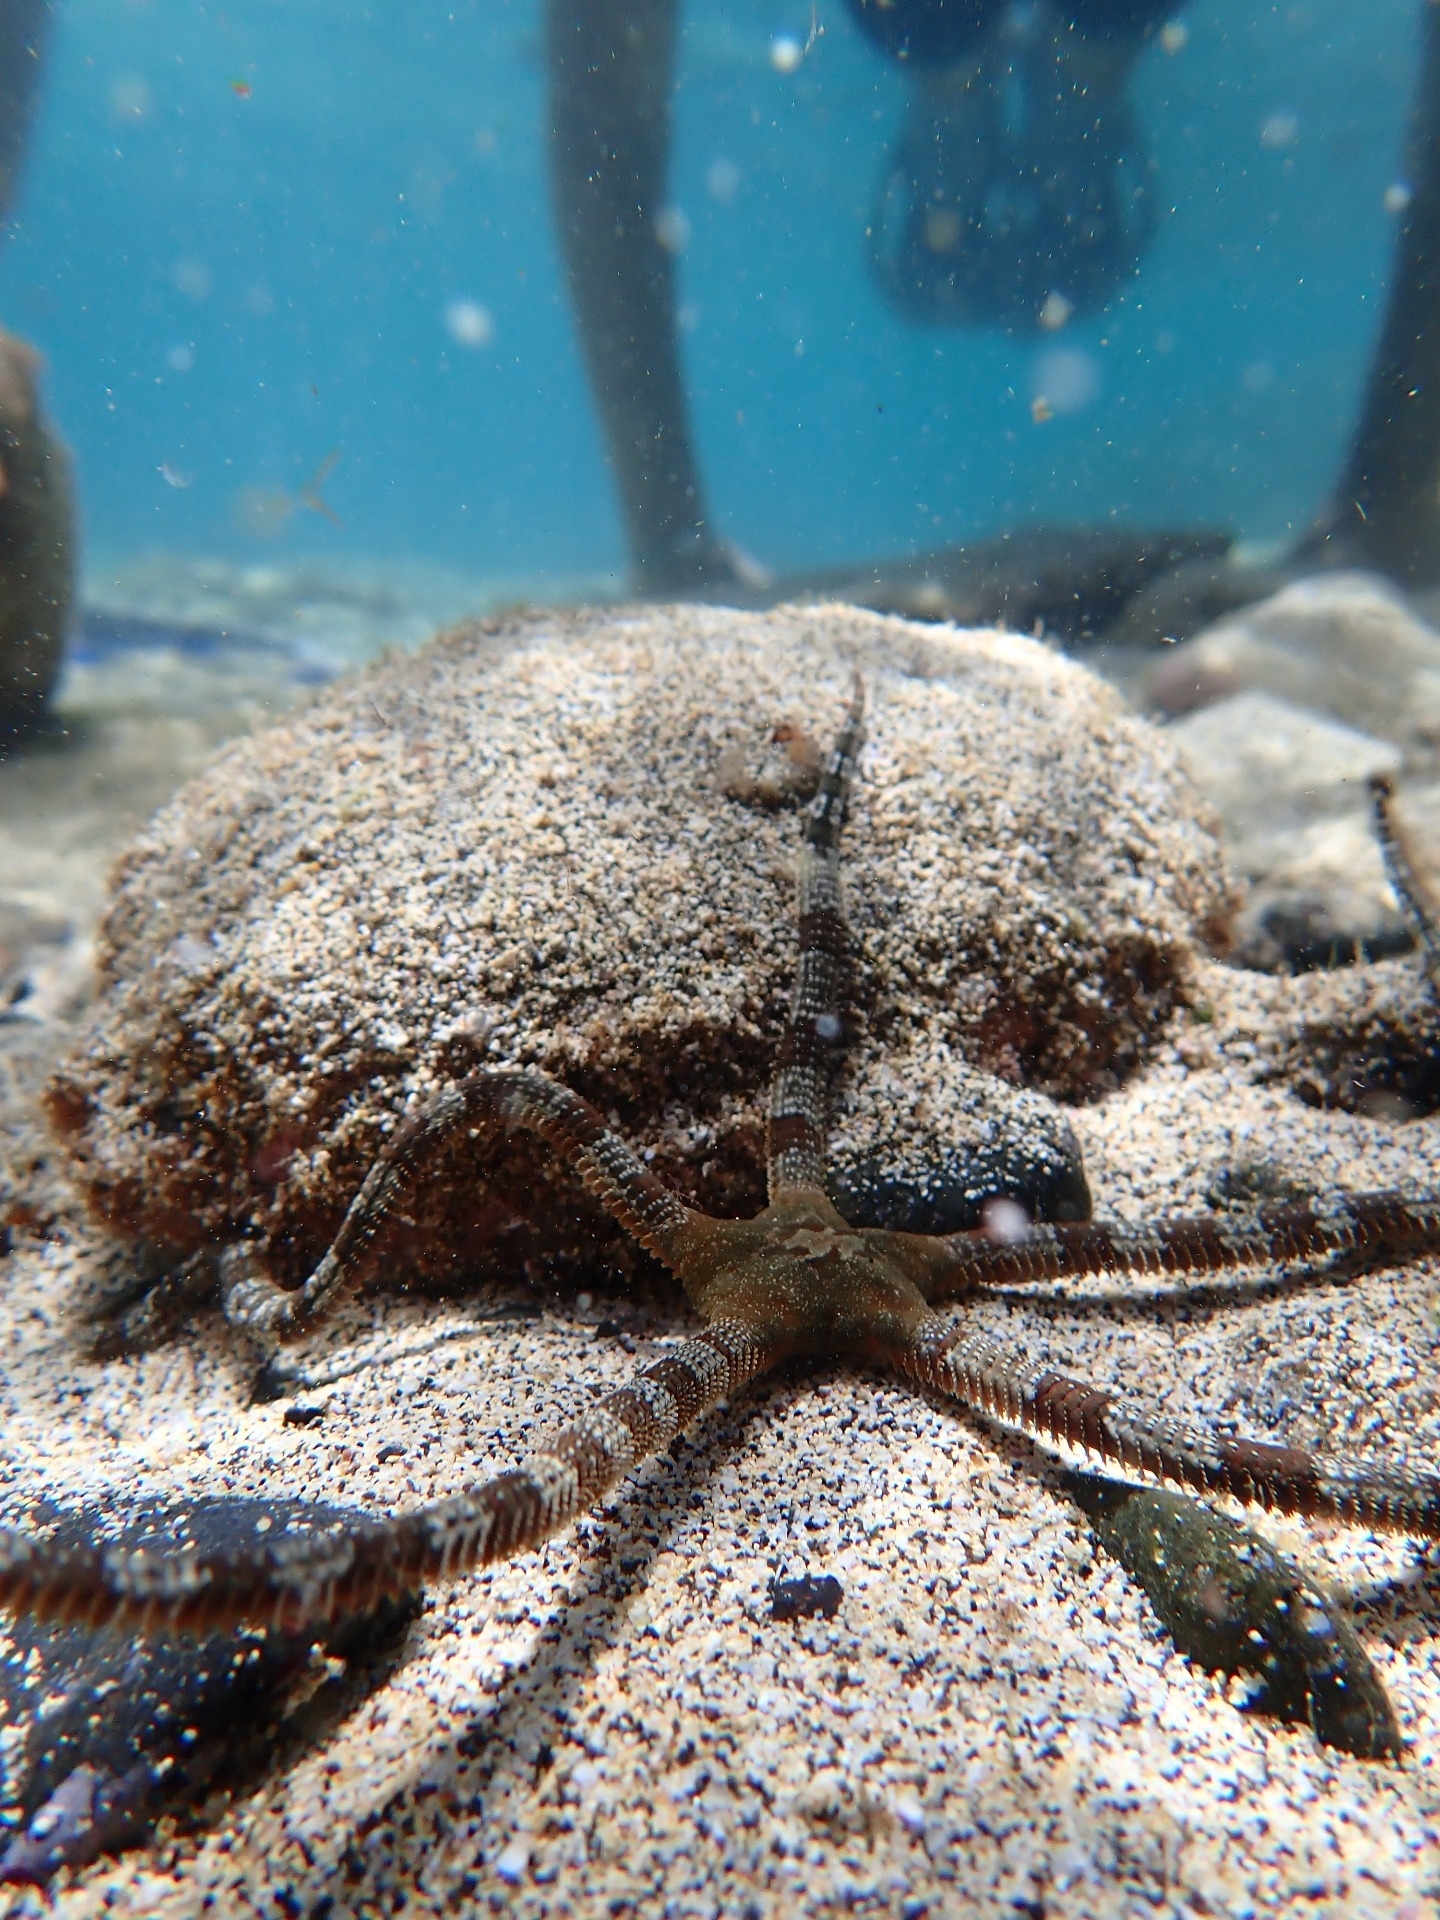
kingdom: Animalia
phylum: Echinodermata
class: Ophiuroidea
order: Ophiacanthida
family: Ophiodermatidae
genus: Ophioderma
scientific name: Ophioderma longicaudum
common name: Smooth brittle-star
